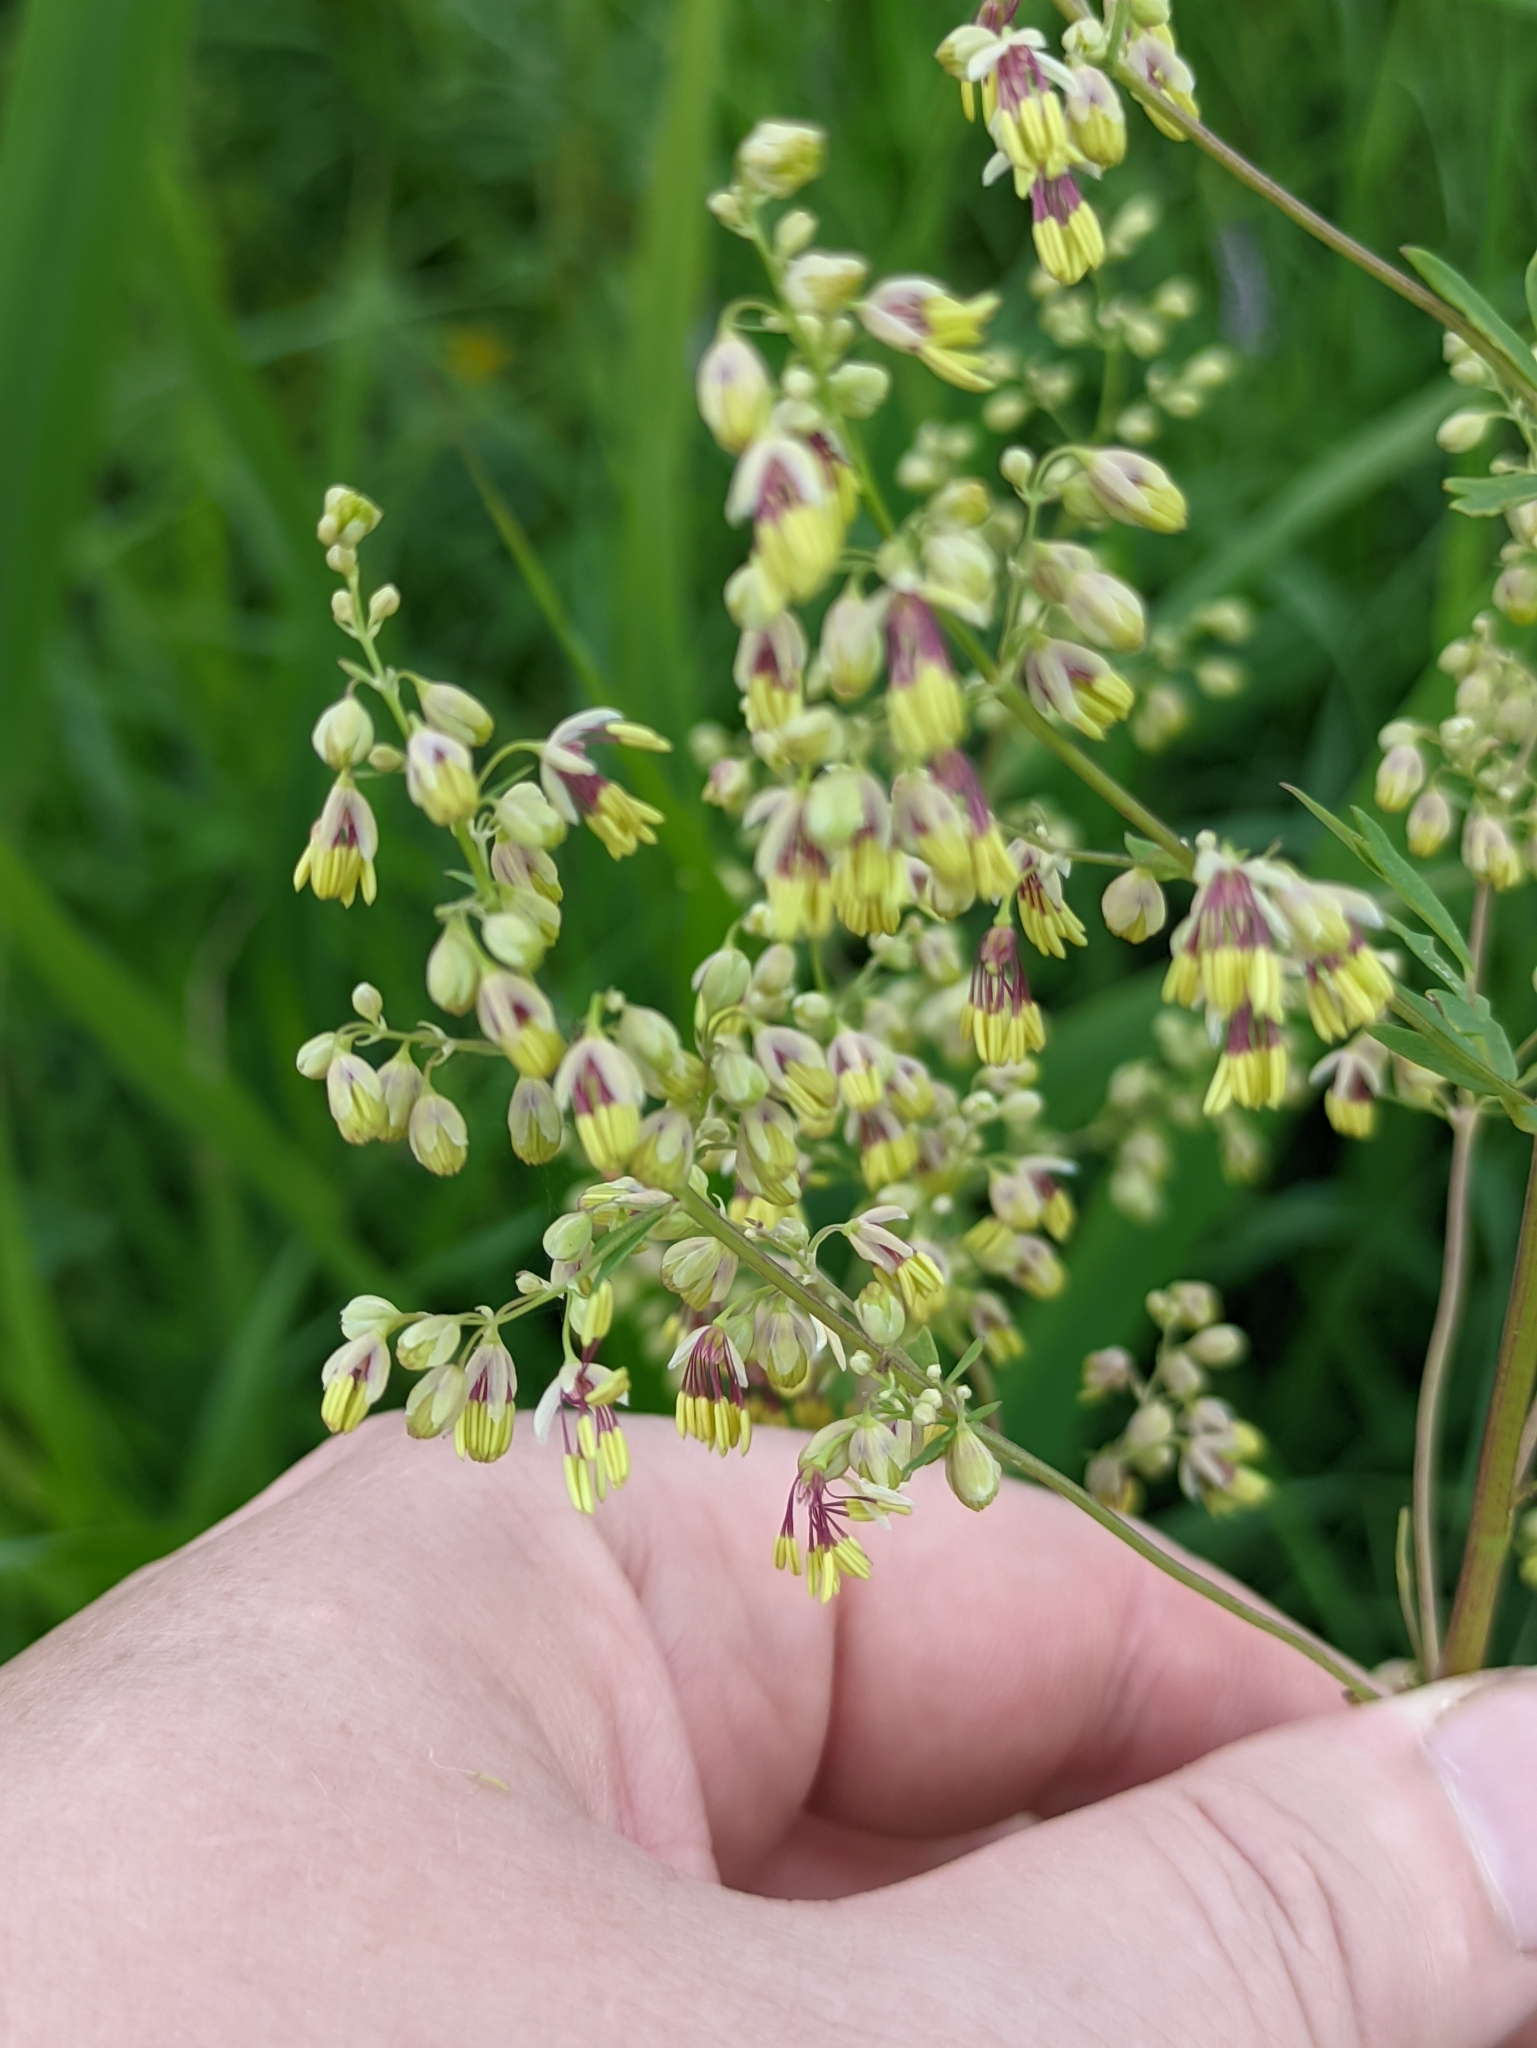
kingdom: Plantae
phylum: Tracheophyta
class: Magnoliopsida
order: Ranunculales
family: Ranunculaceae
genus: Thalictrum
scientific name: Thalictrum simplex
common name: Small meadow-rue
